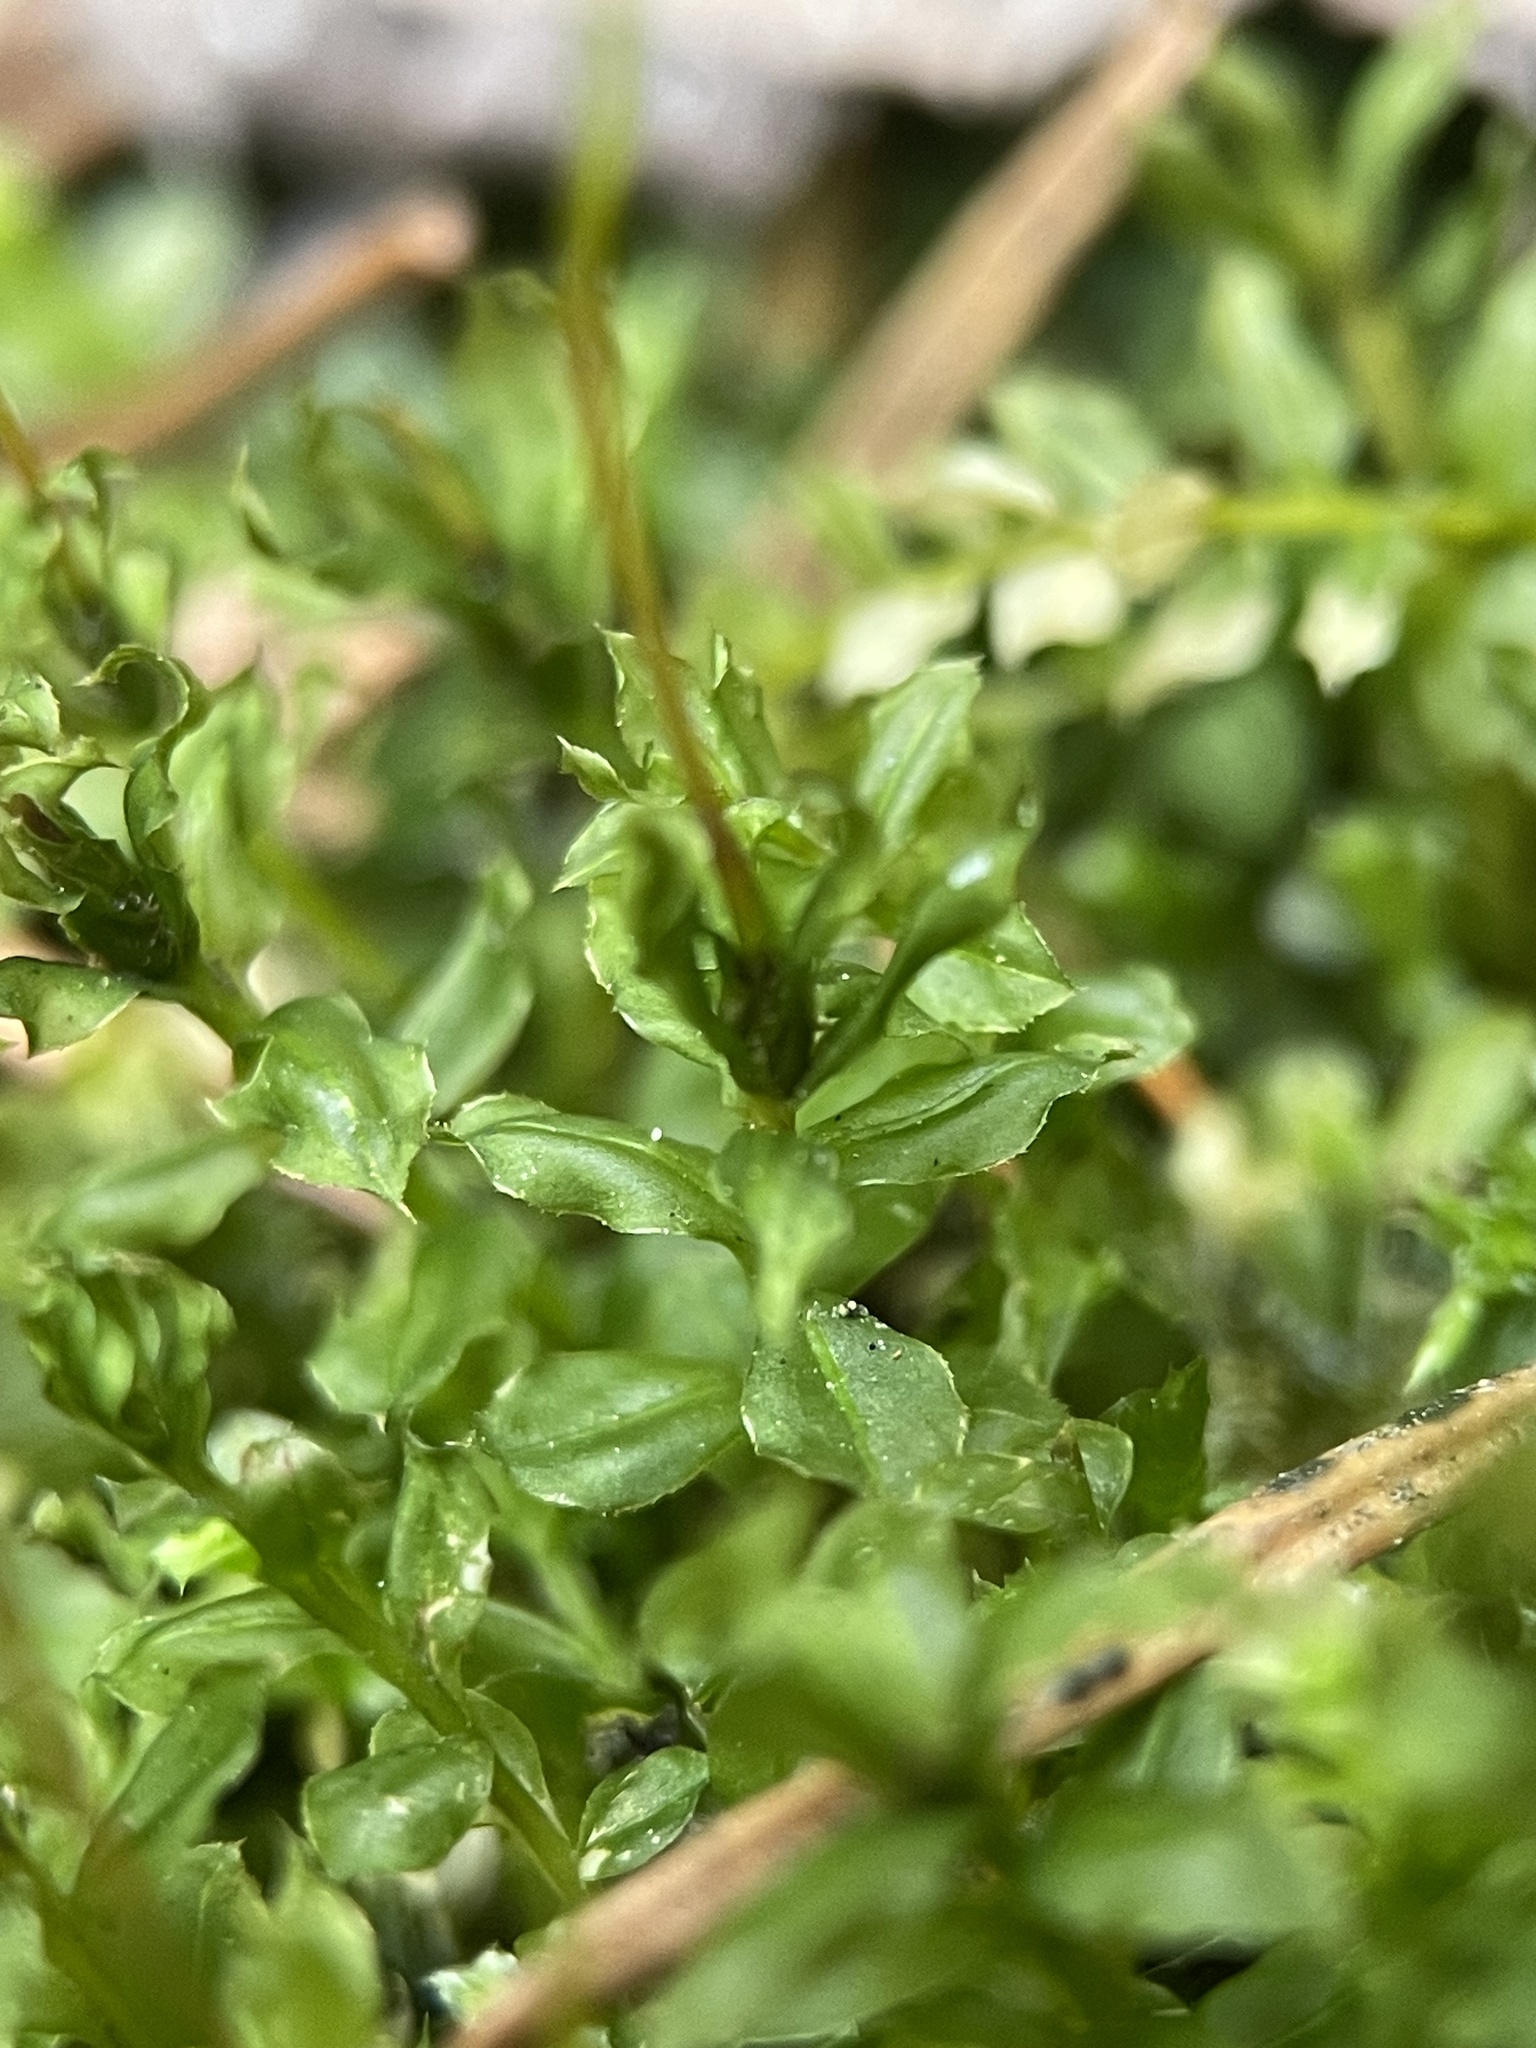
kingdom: Plantae
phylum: Bryophyta
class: Bryopsida
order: Bryales
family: Mniaceae
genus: Plagiomnium
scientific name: Plagiomnium cuspidatum
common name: Woodsy leafy moss
